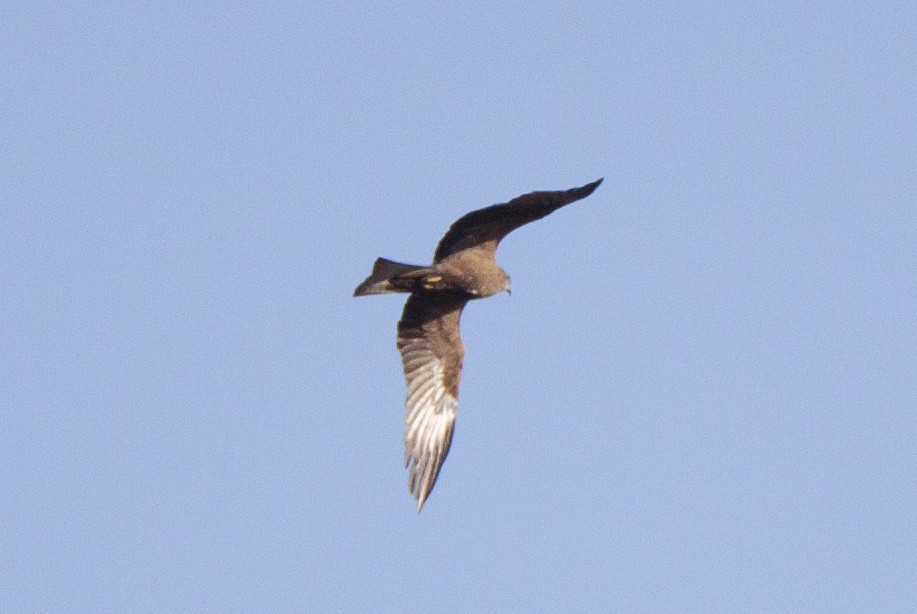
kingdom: Animalia
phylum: Chordata
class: Aves
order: Accipitriformes
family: Accipitridae
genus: Circus
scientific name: Circus aeruginosus
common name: Western marsh harrier
